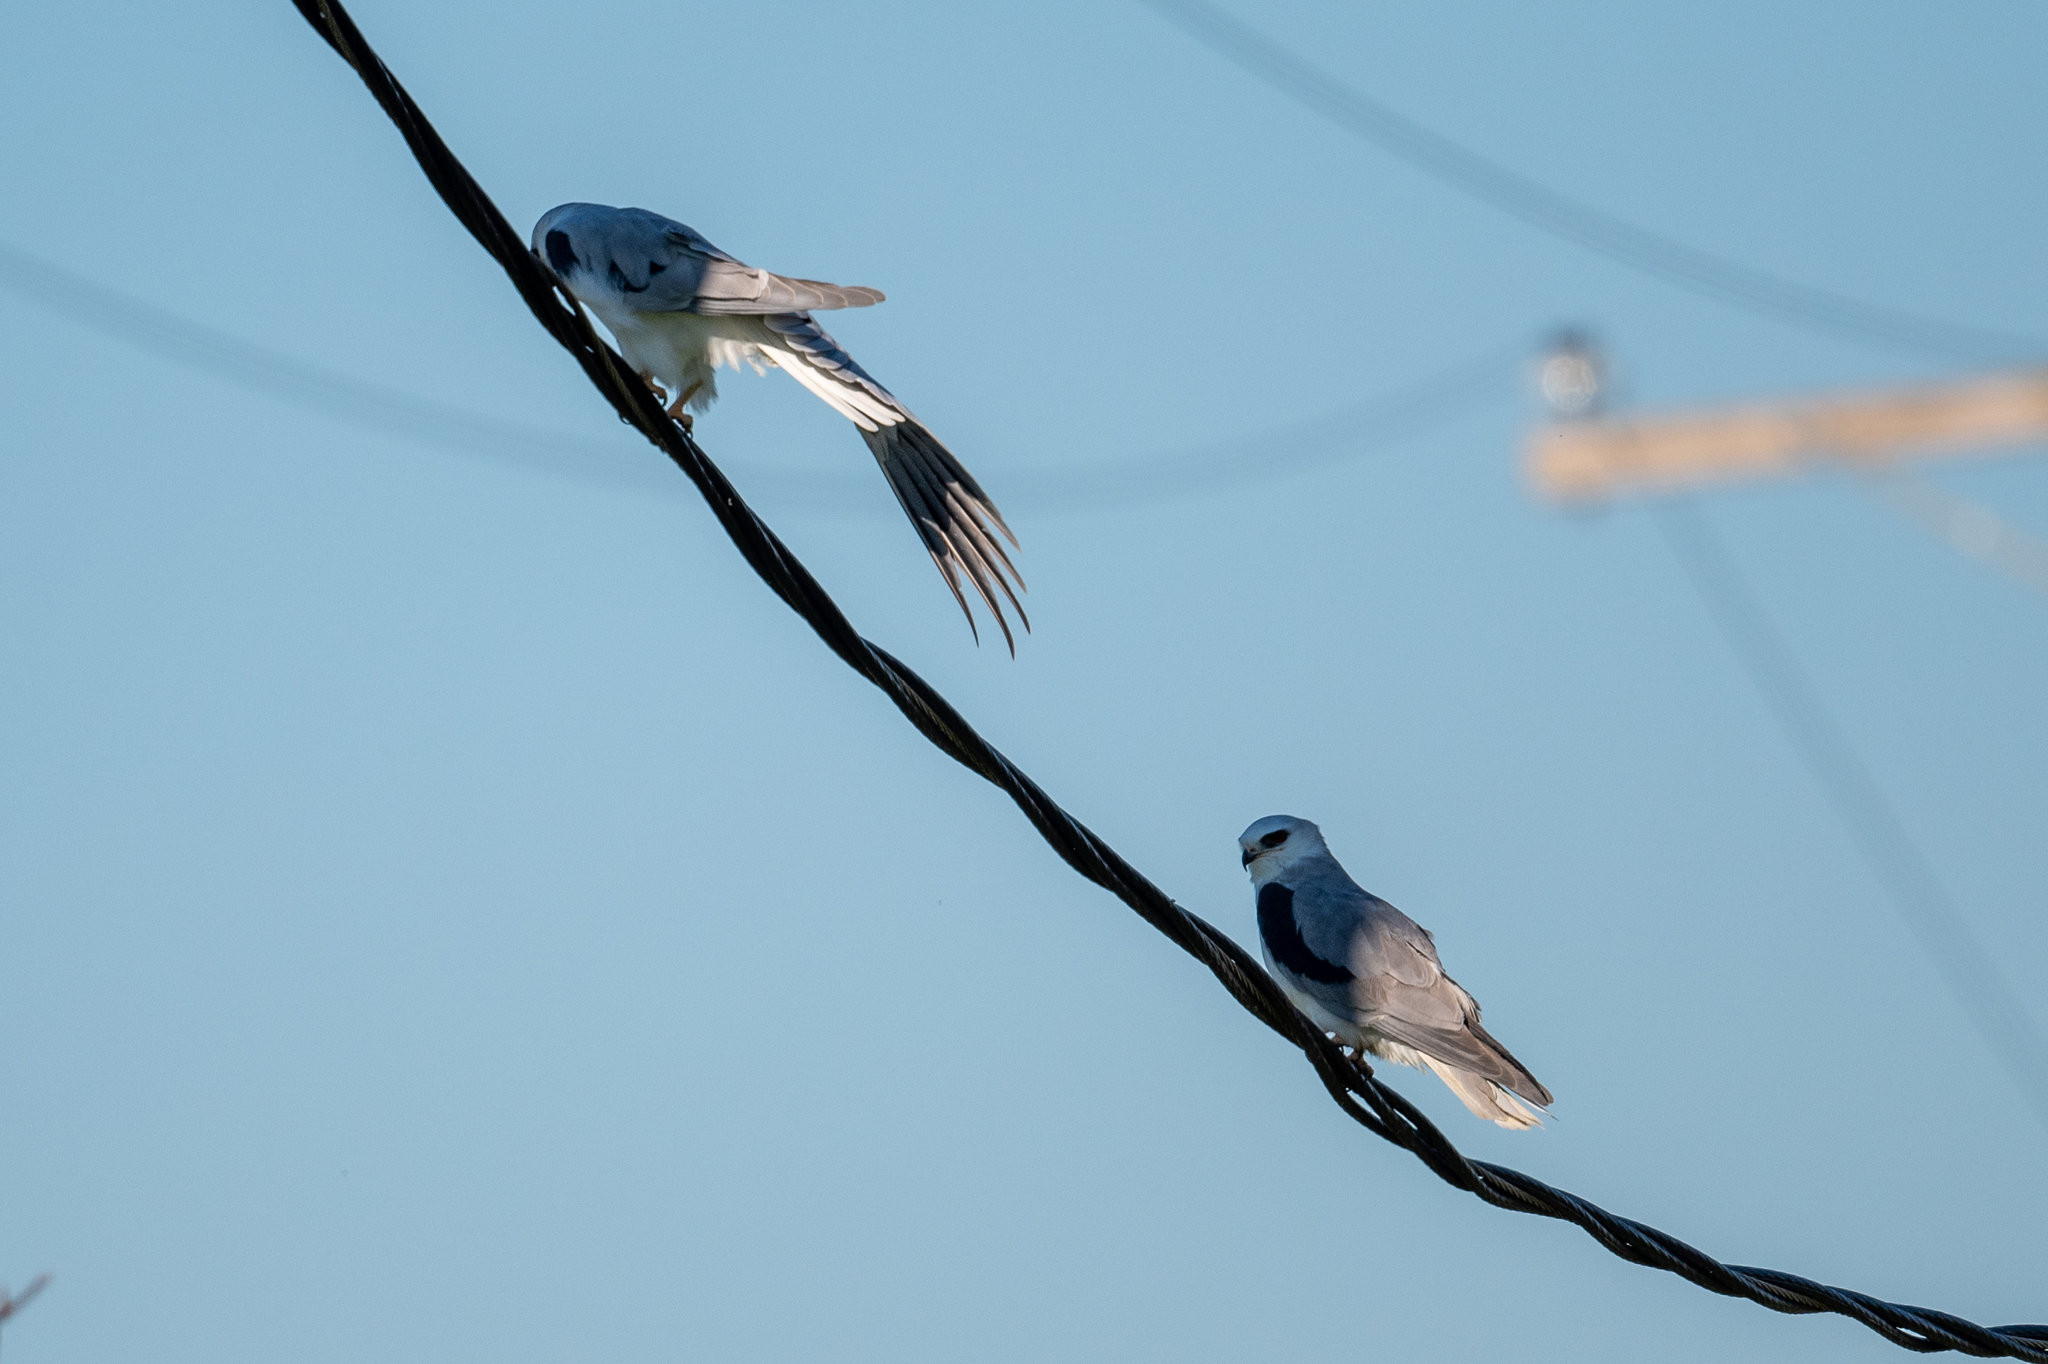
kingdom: Animalia
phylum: Chordata
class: Aves
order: Accipitriformes
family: Accipitridae
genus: Elanus
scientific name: Elanus leucurus
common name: White-tailed kite
